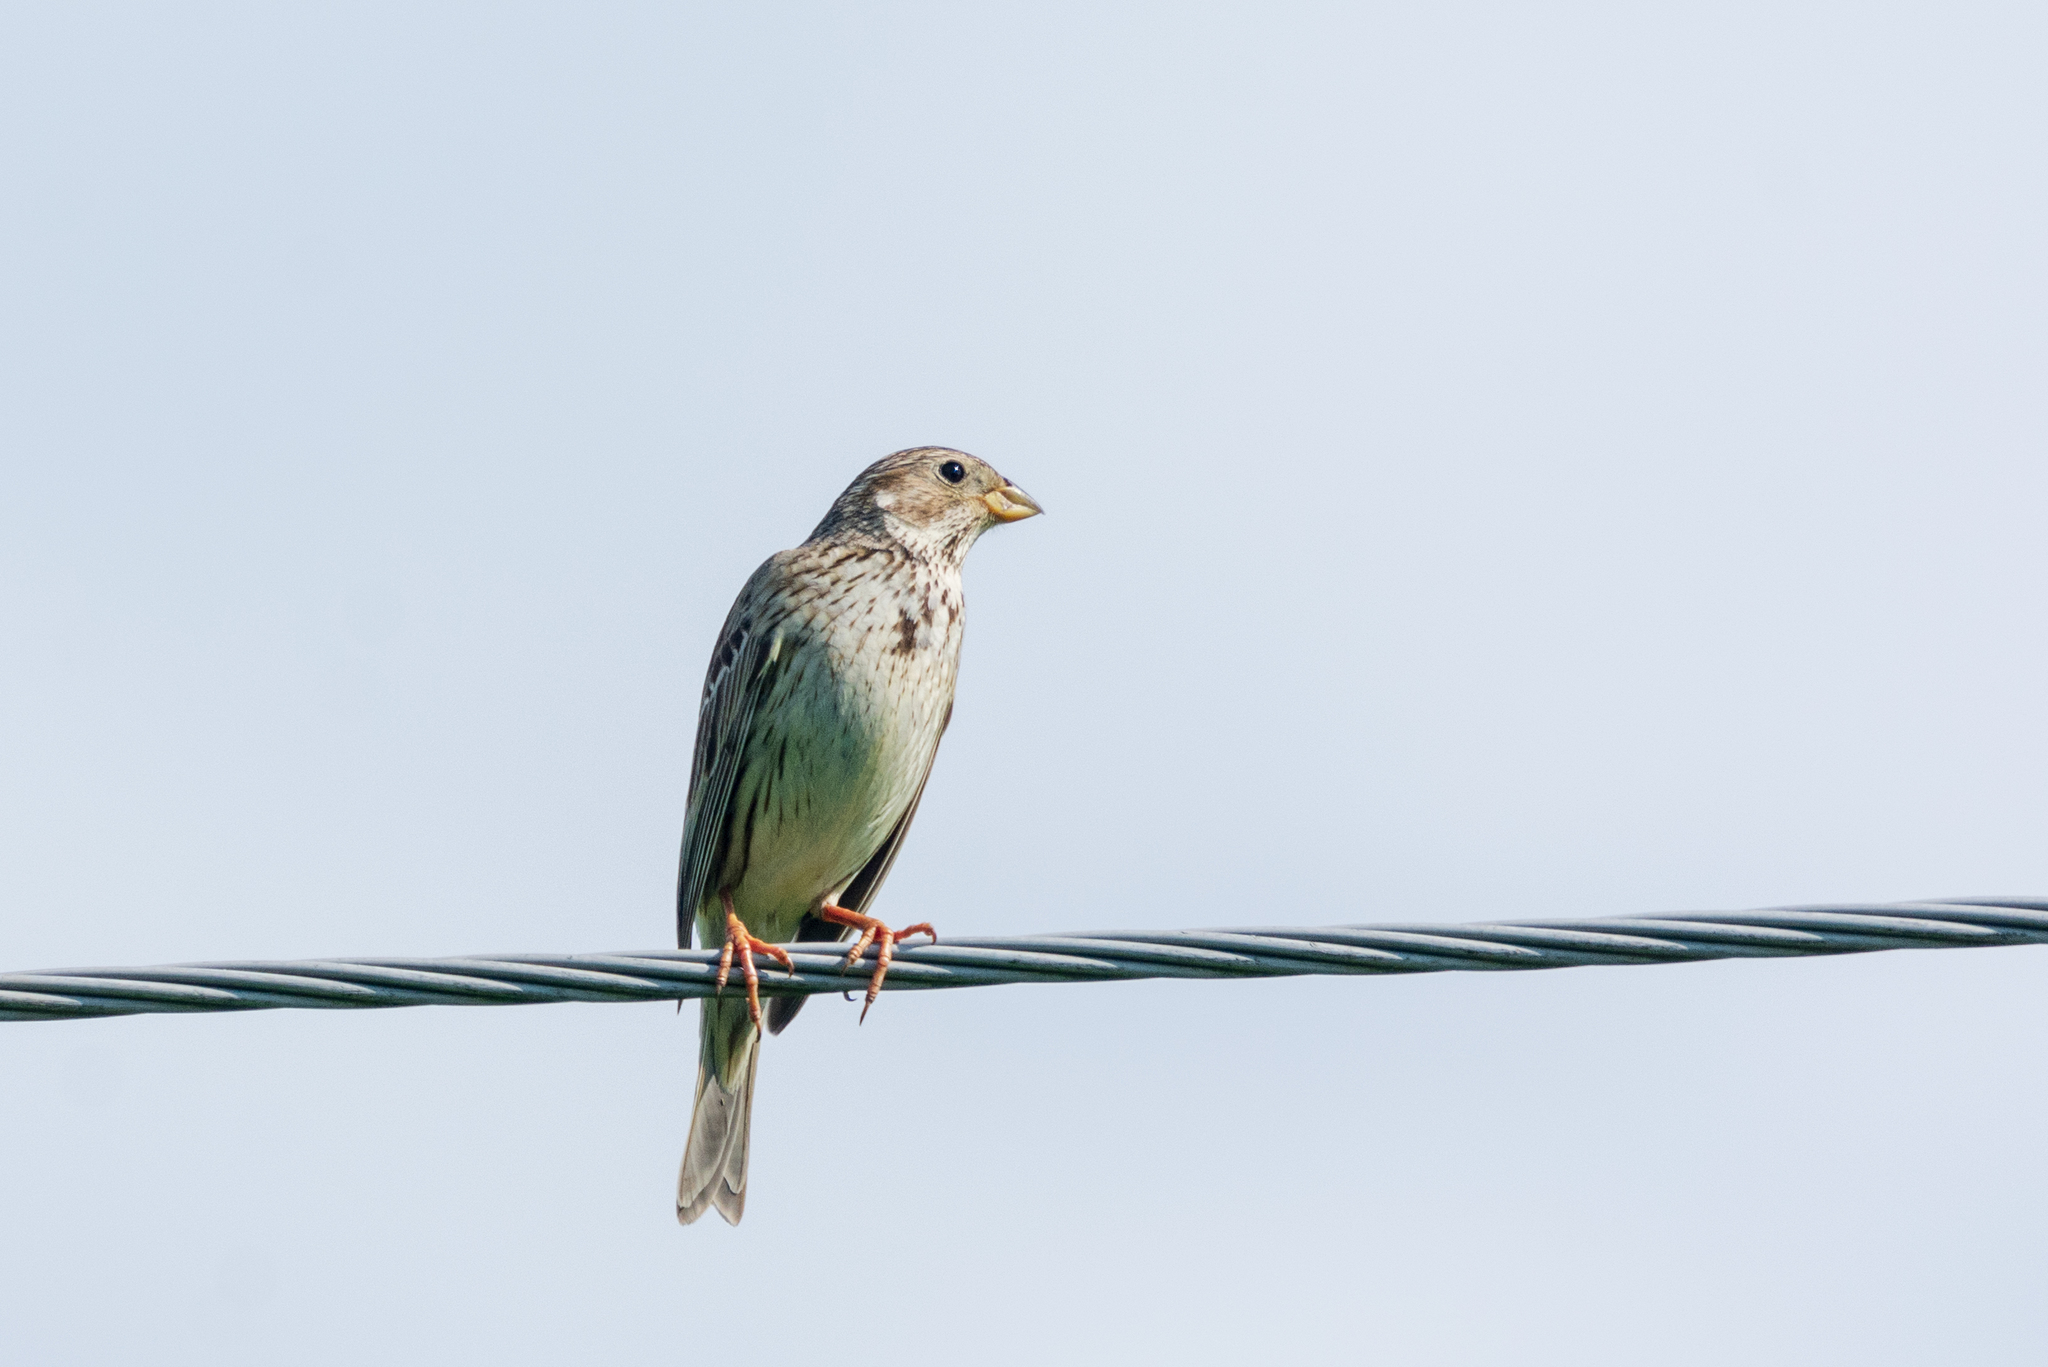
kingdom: Animalia
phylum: Chordata
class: Aves
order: Passeriformes
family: Emberizidae
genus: Emberiza
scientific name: Emberiza calandra
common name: Corn bunting
